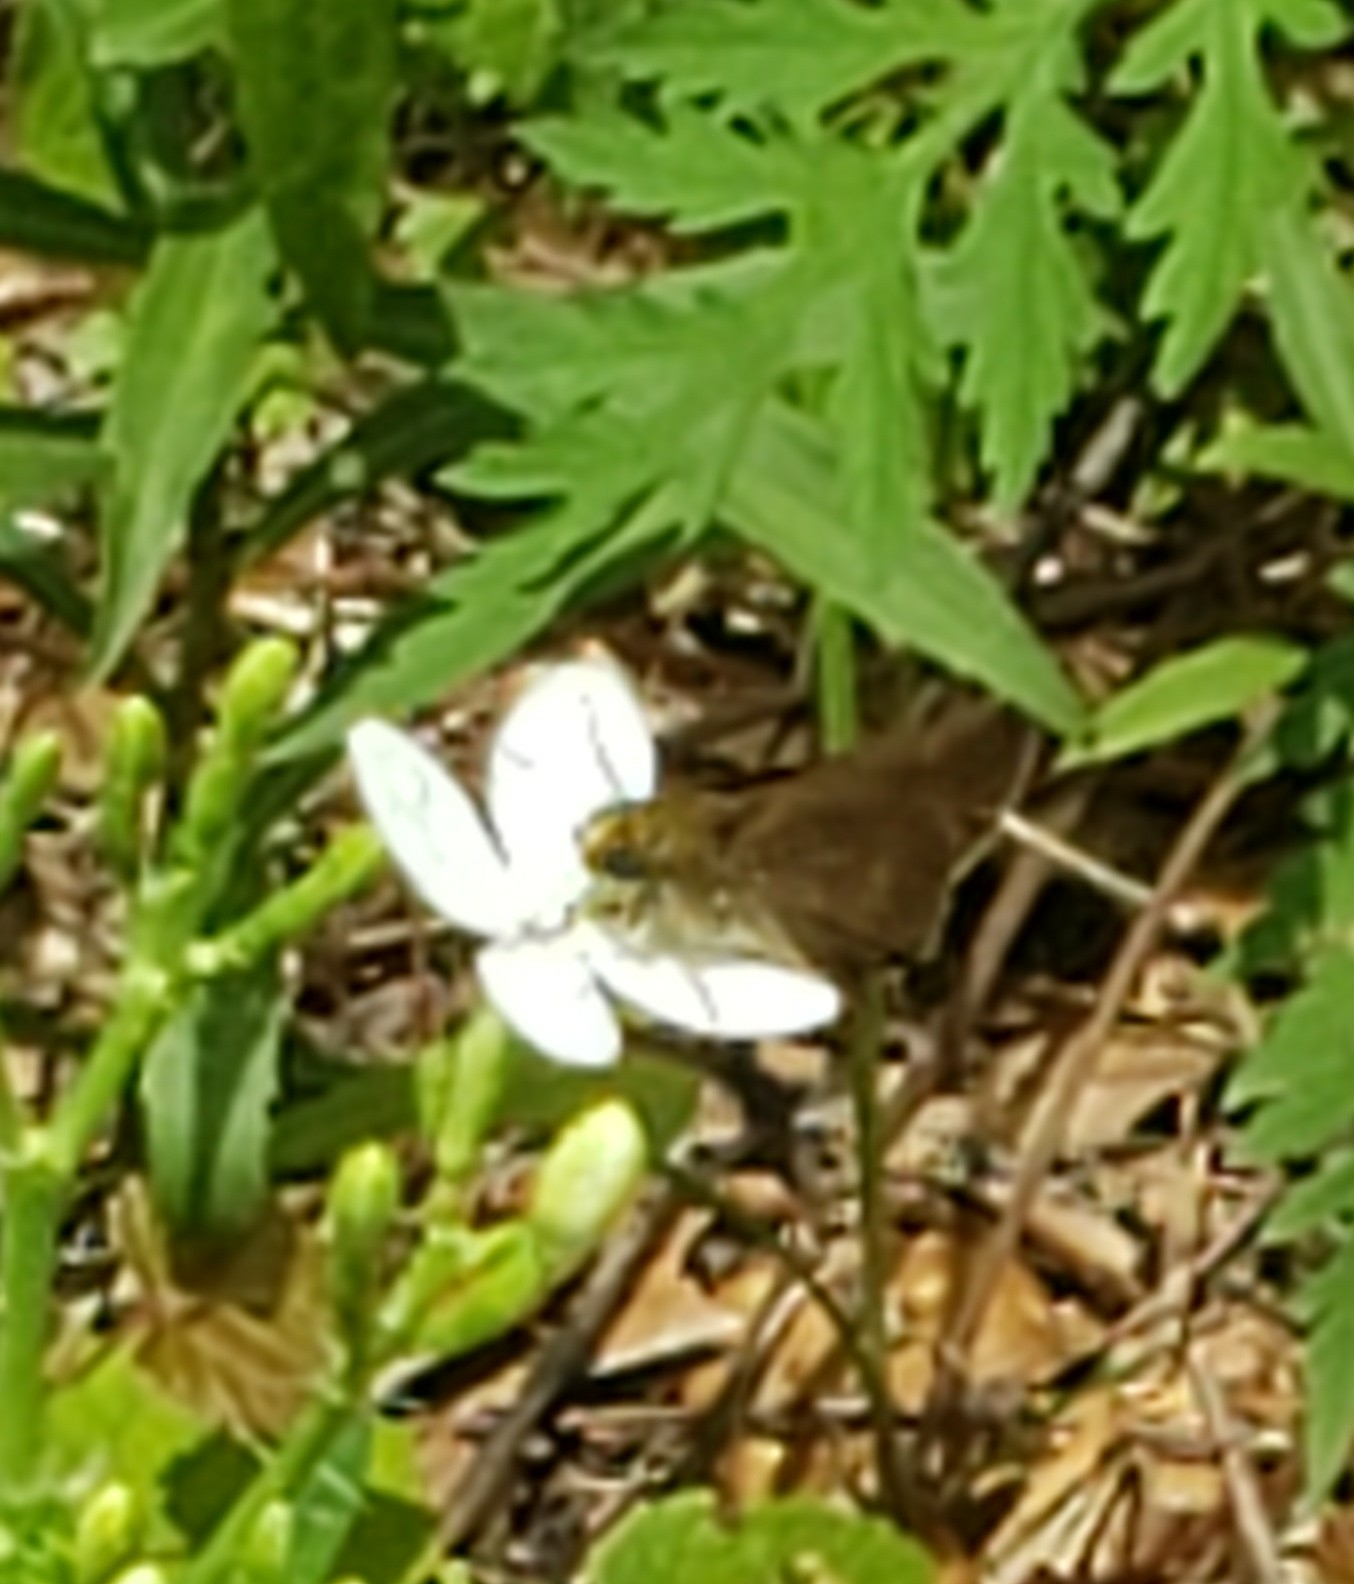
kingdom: Animalia
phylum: Arthropoda
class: Insecta
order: Lepidoptera
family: Hesperiidae
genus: Euphyes
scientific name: Euphyes vestris
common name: Dun skipper
